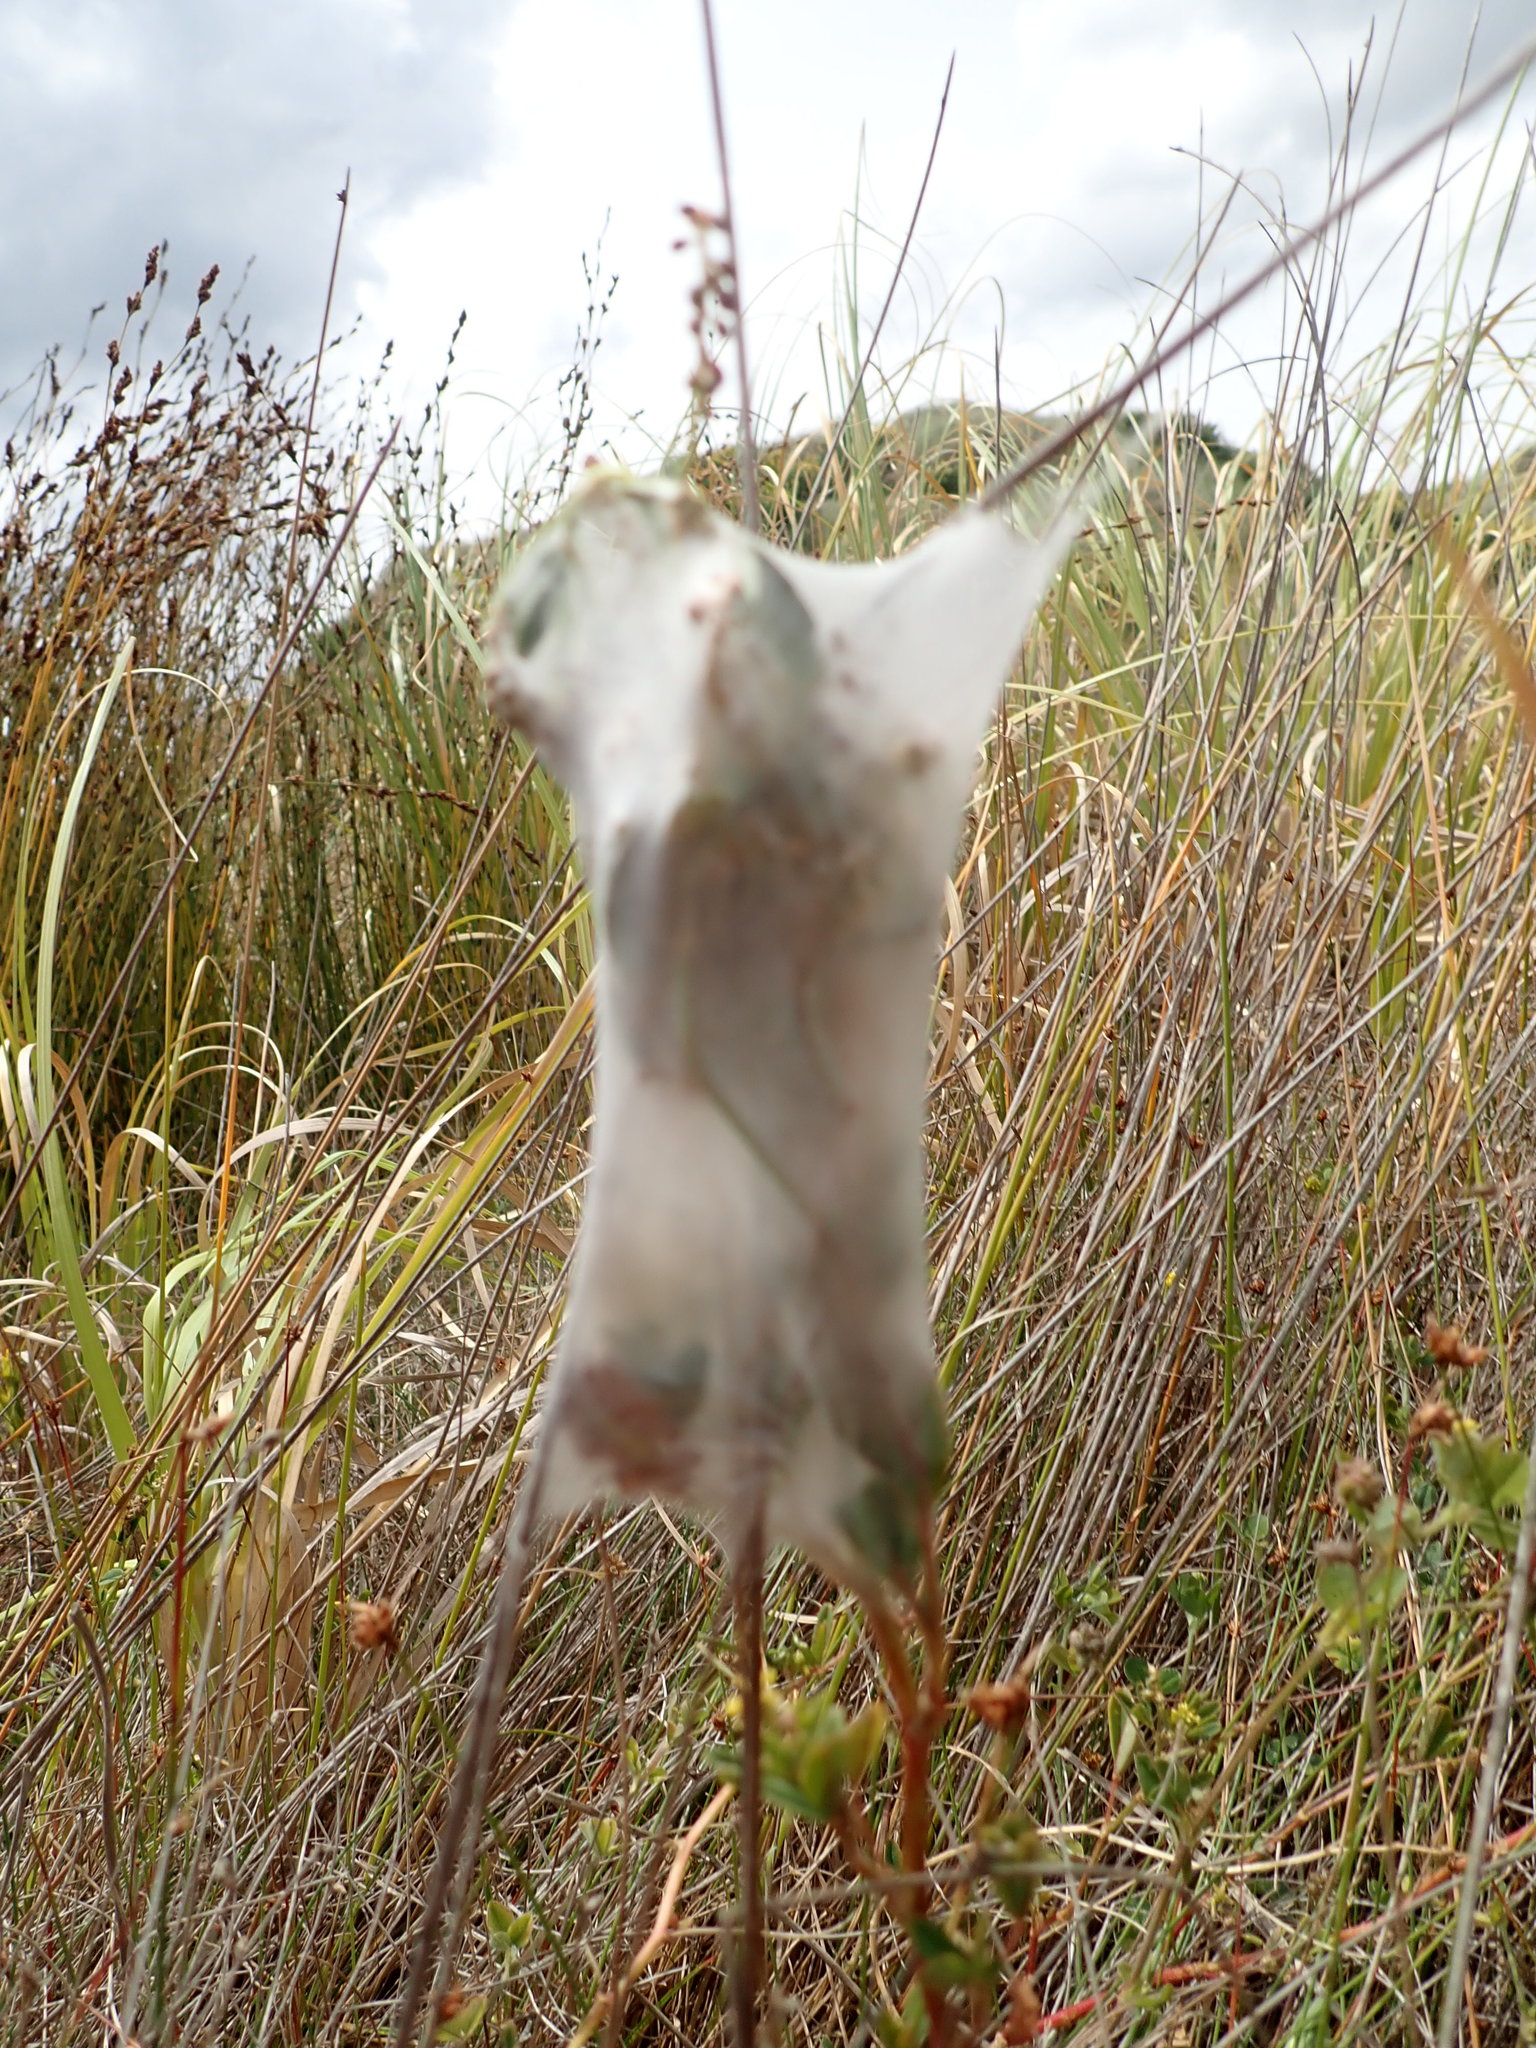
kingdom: Animalia
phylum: Arthropoda
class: Arachnida
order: Araneae
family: Pisauridae
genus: Dolomedes
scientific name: Dolomedes minor
